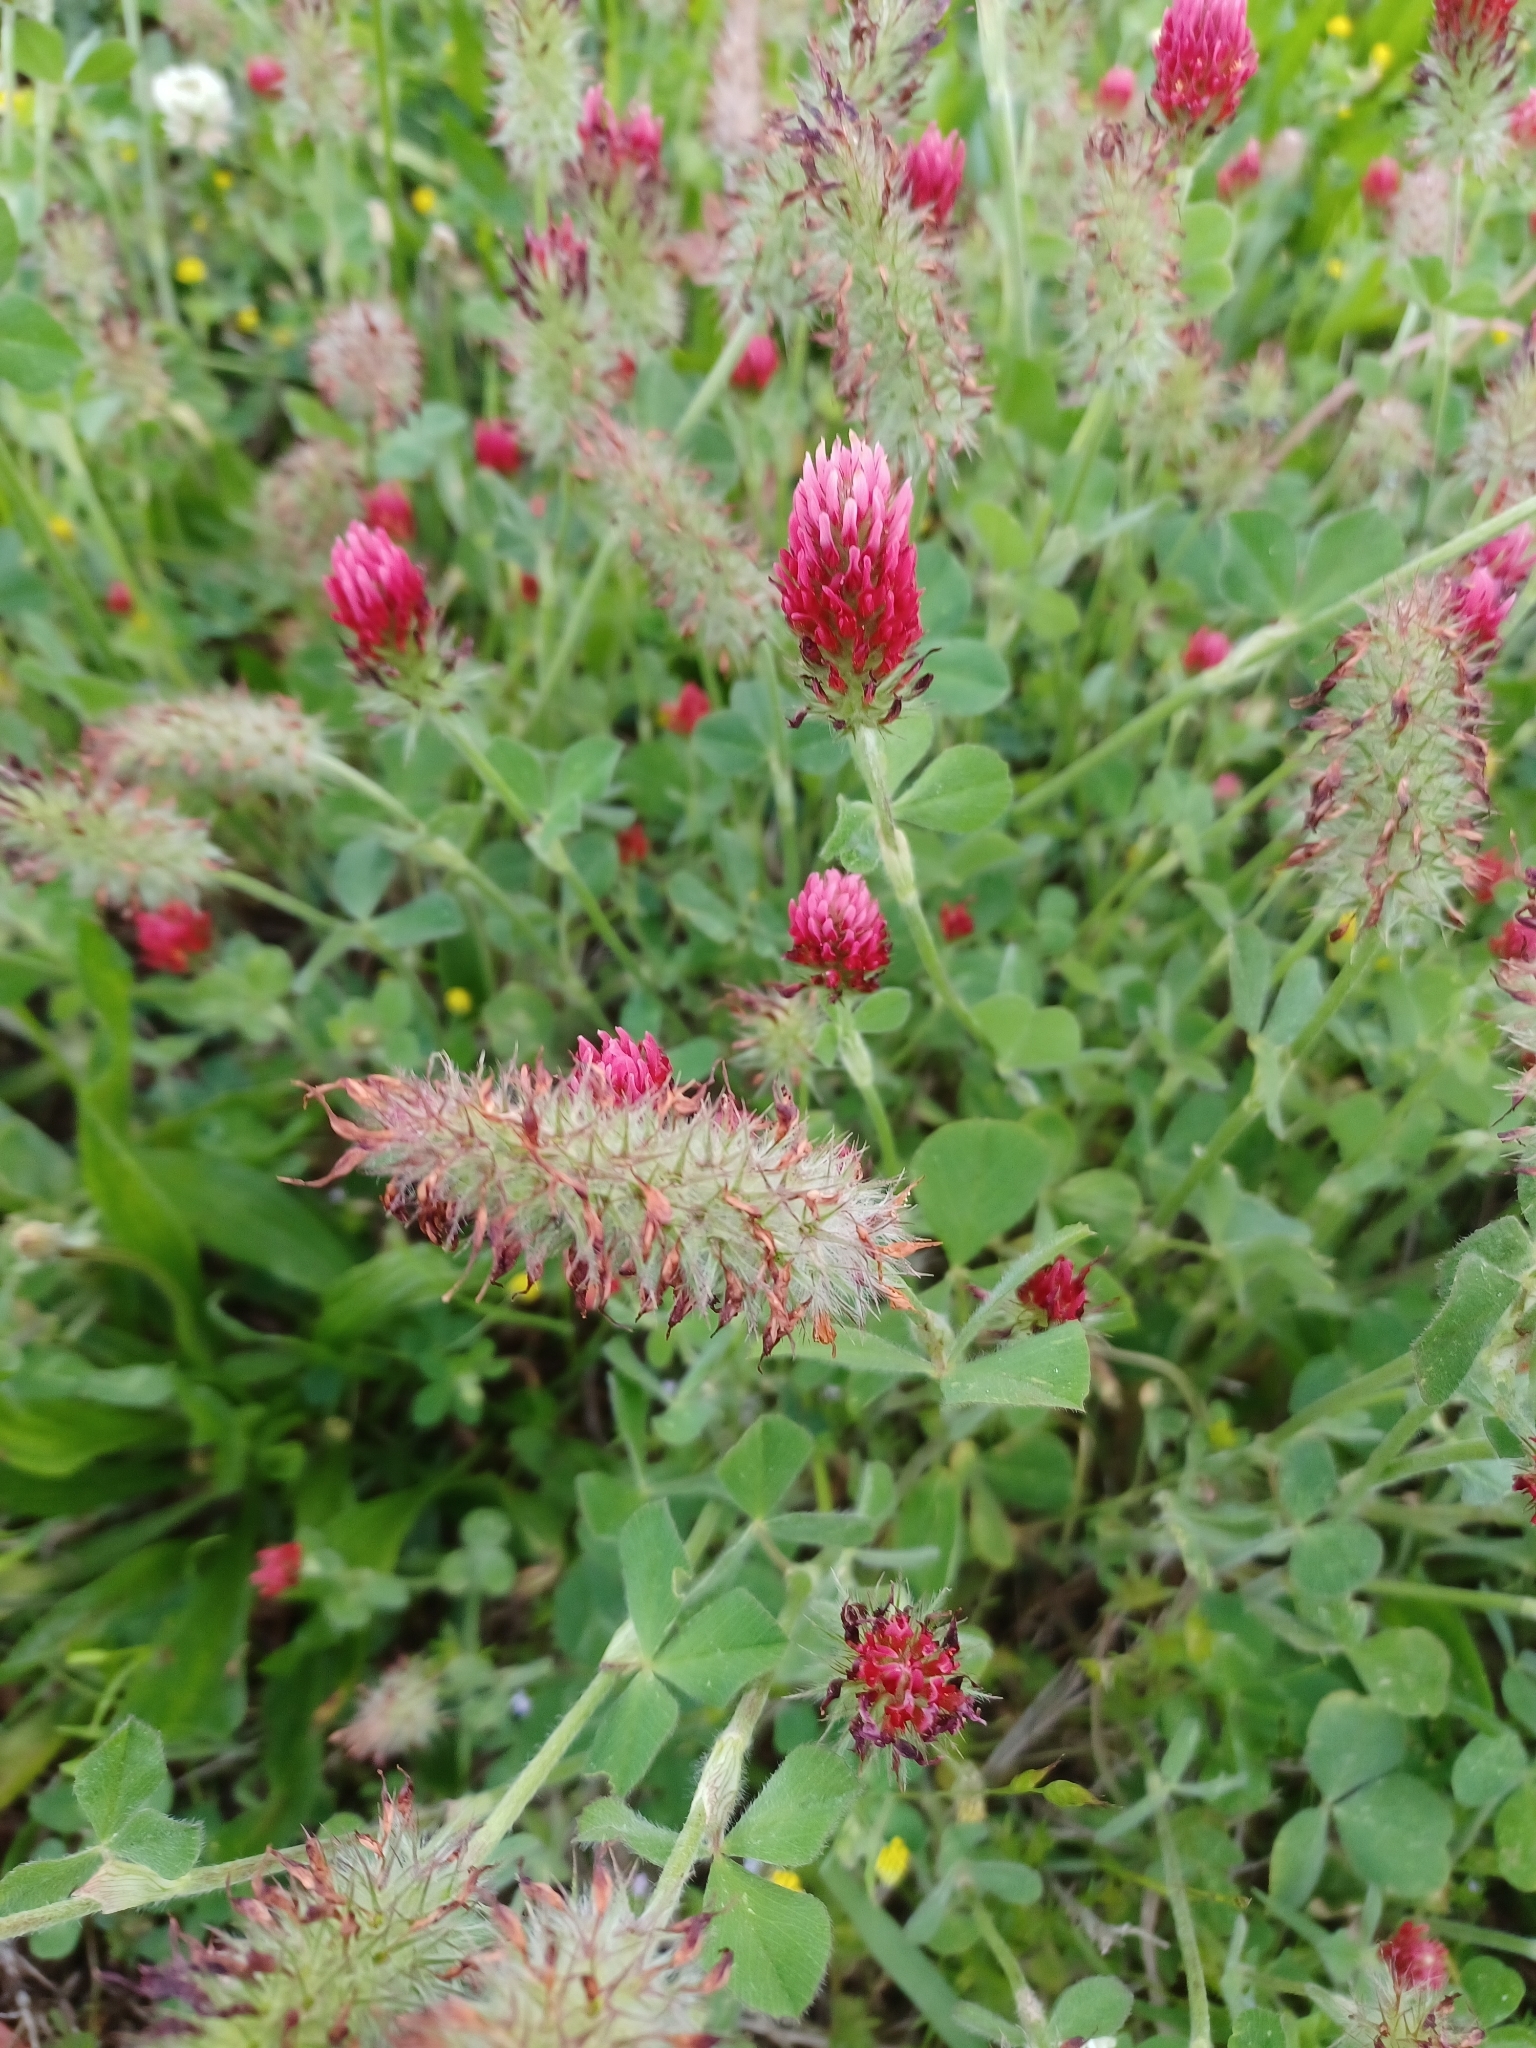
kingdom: Plantae
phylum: Tracheophyta
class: Magnoliopsida
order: Fabales
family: Fabaceae
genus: Trifolium
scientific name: Trifolium incarnatum
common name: Crimson clover
